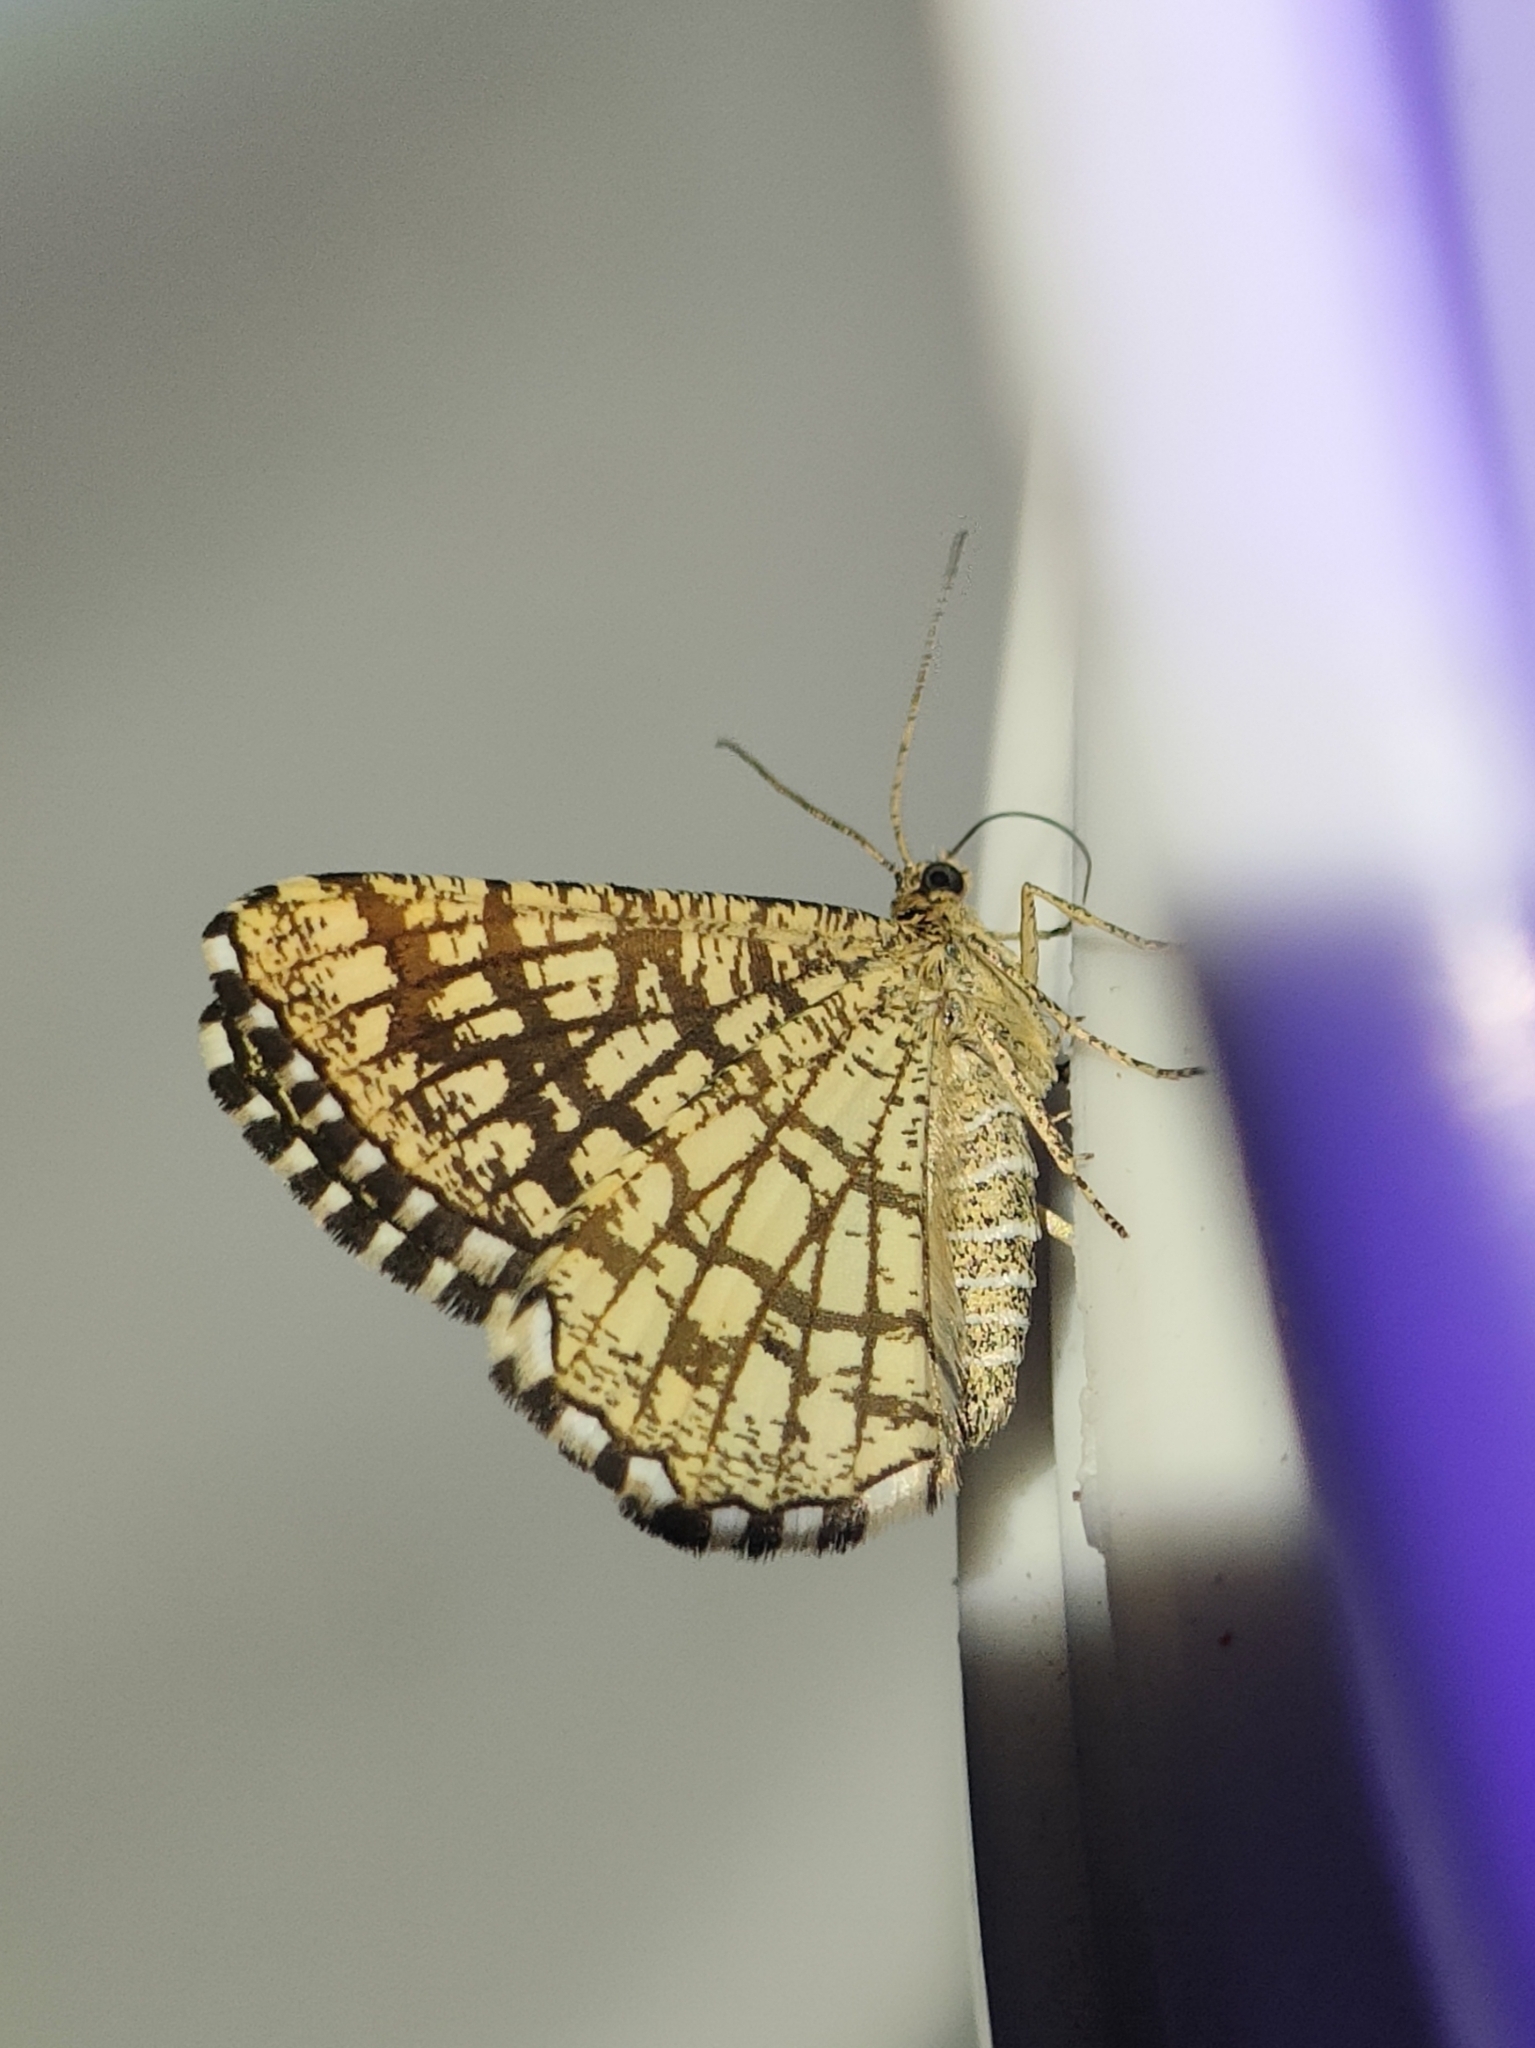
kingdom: Animalia
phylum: Arthropoda
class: Insecta
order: Lepidoptera
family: Geometridae
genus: Chiasmia
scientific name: Chiasmia clathrata
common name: Latticed heath
